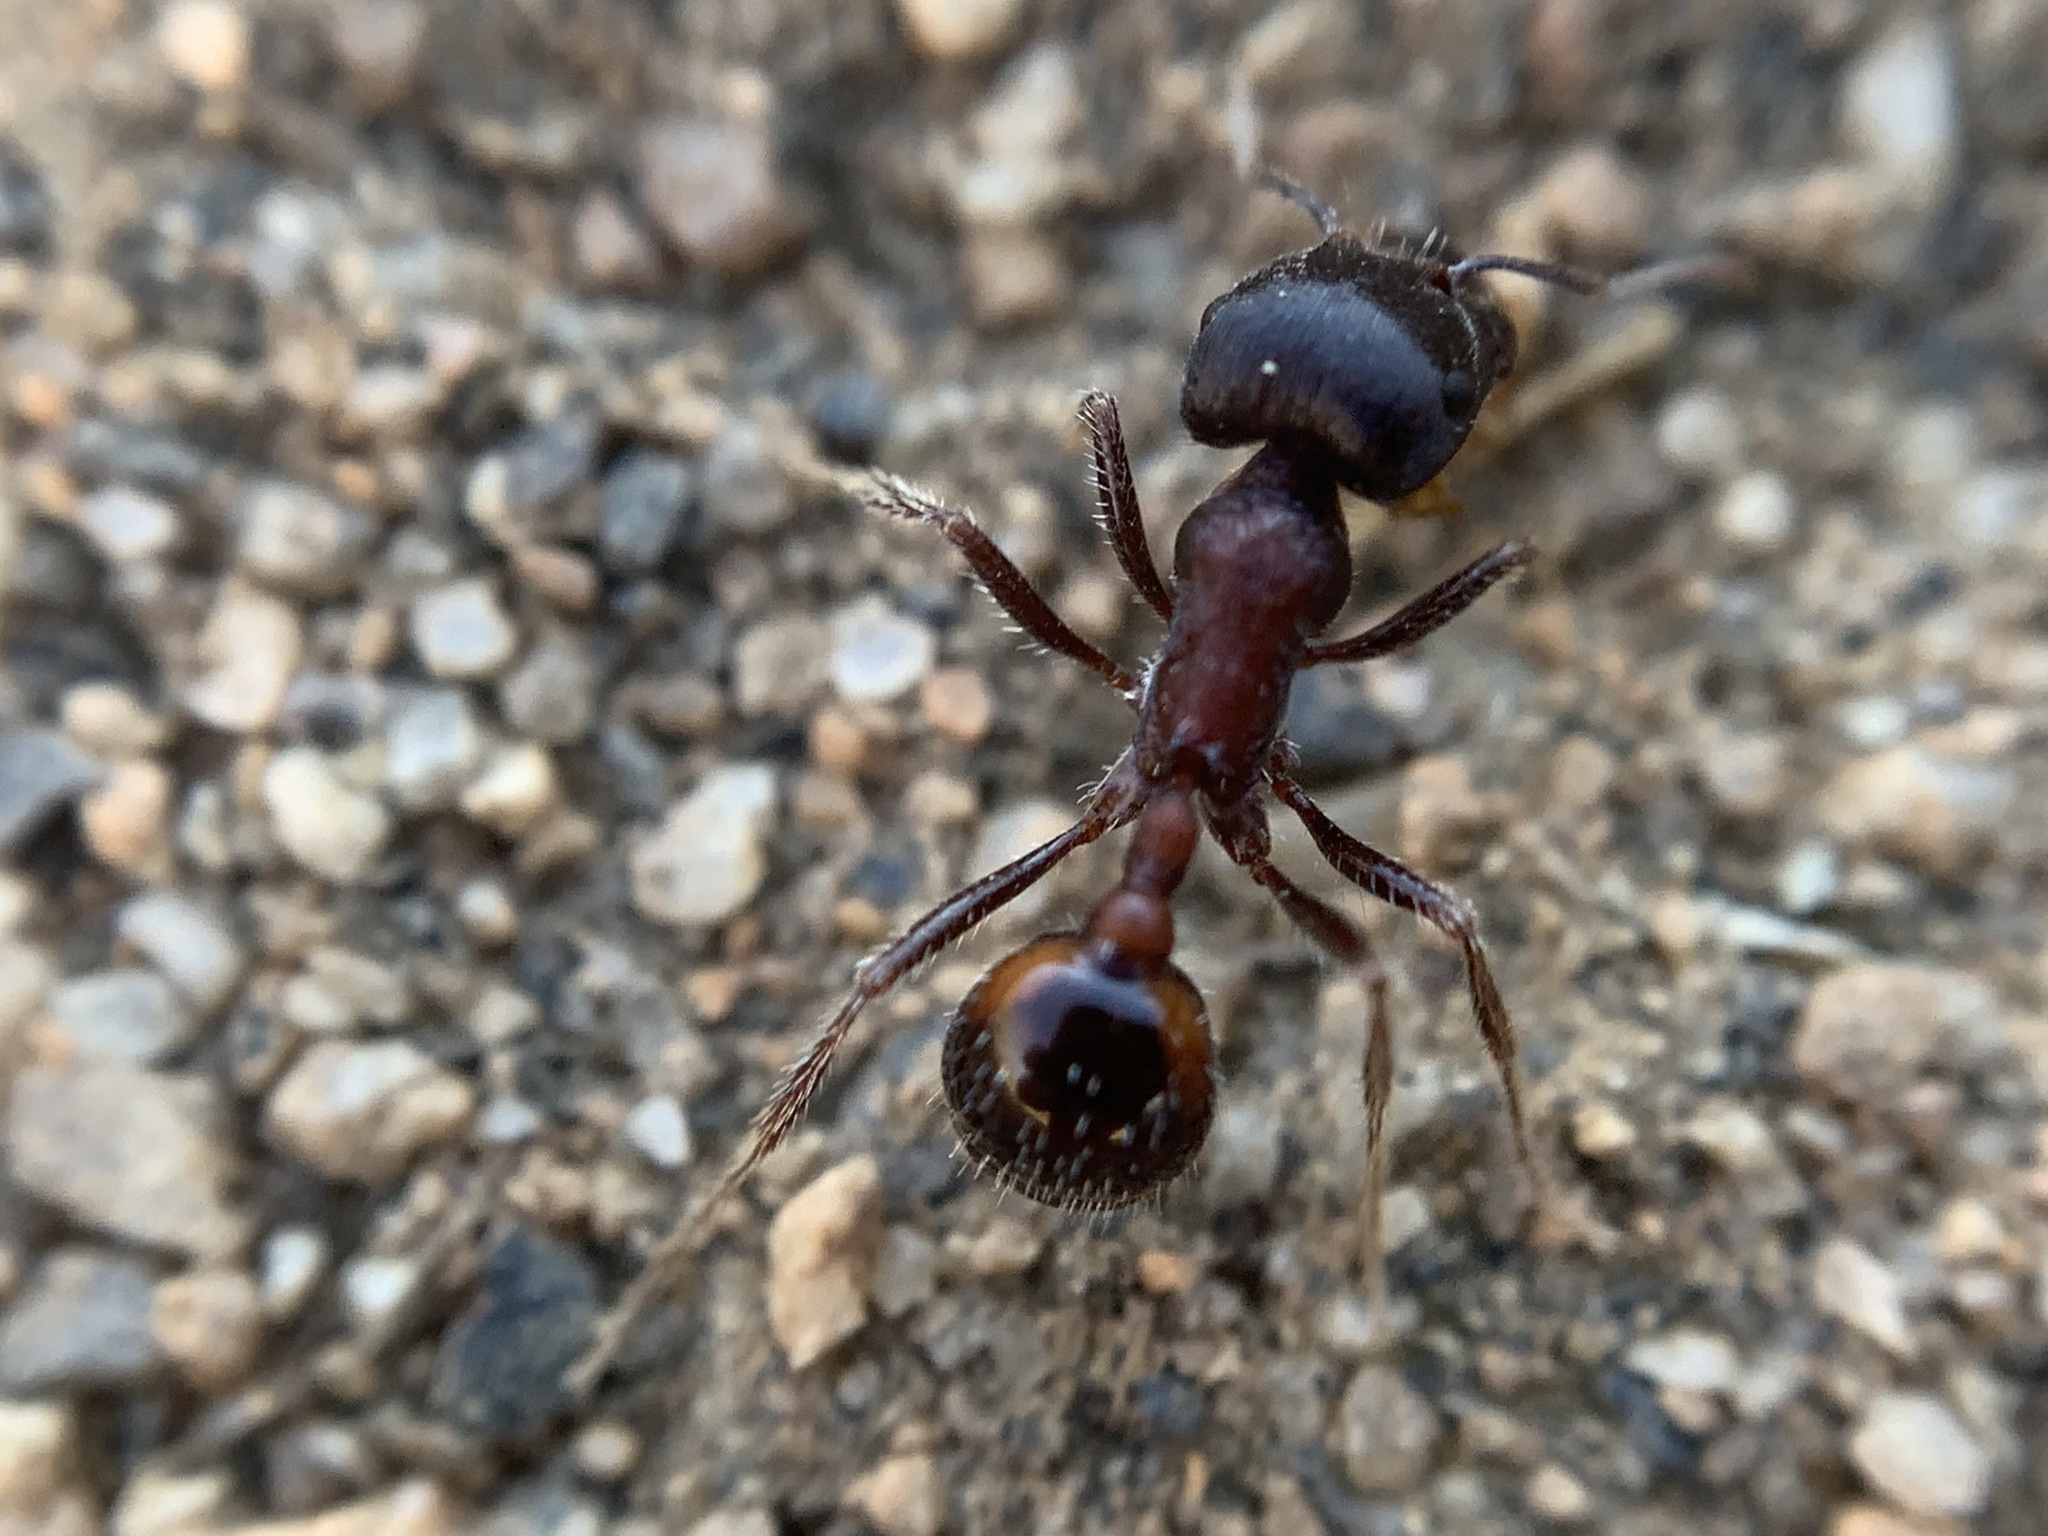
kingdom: Animalia
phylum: Arthropoda
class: Insecta
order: Hymenoptera
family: Formicidae
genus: Pogonomyrmex
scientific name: Pogonomyrmex rugosus
